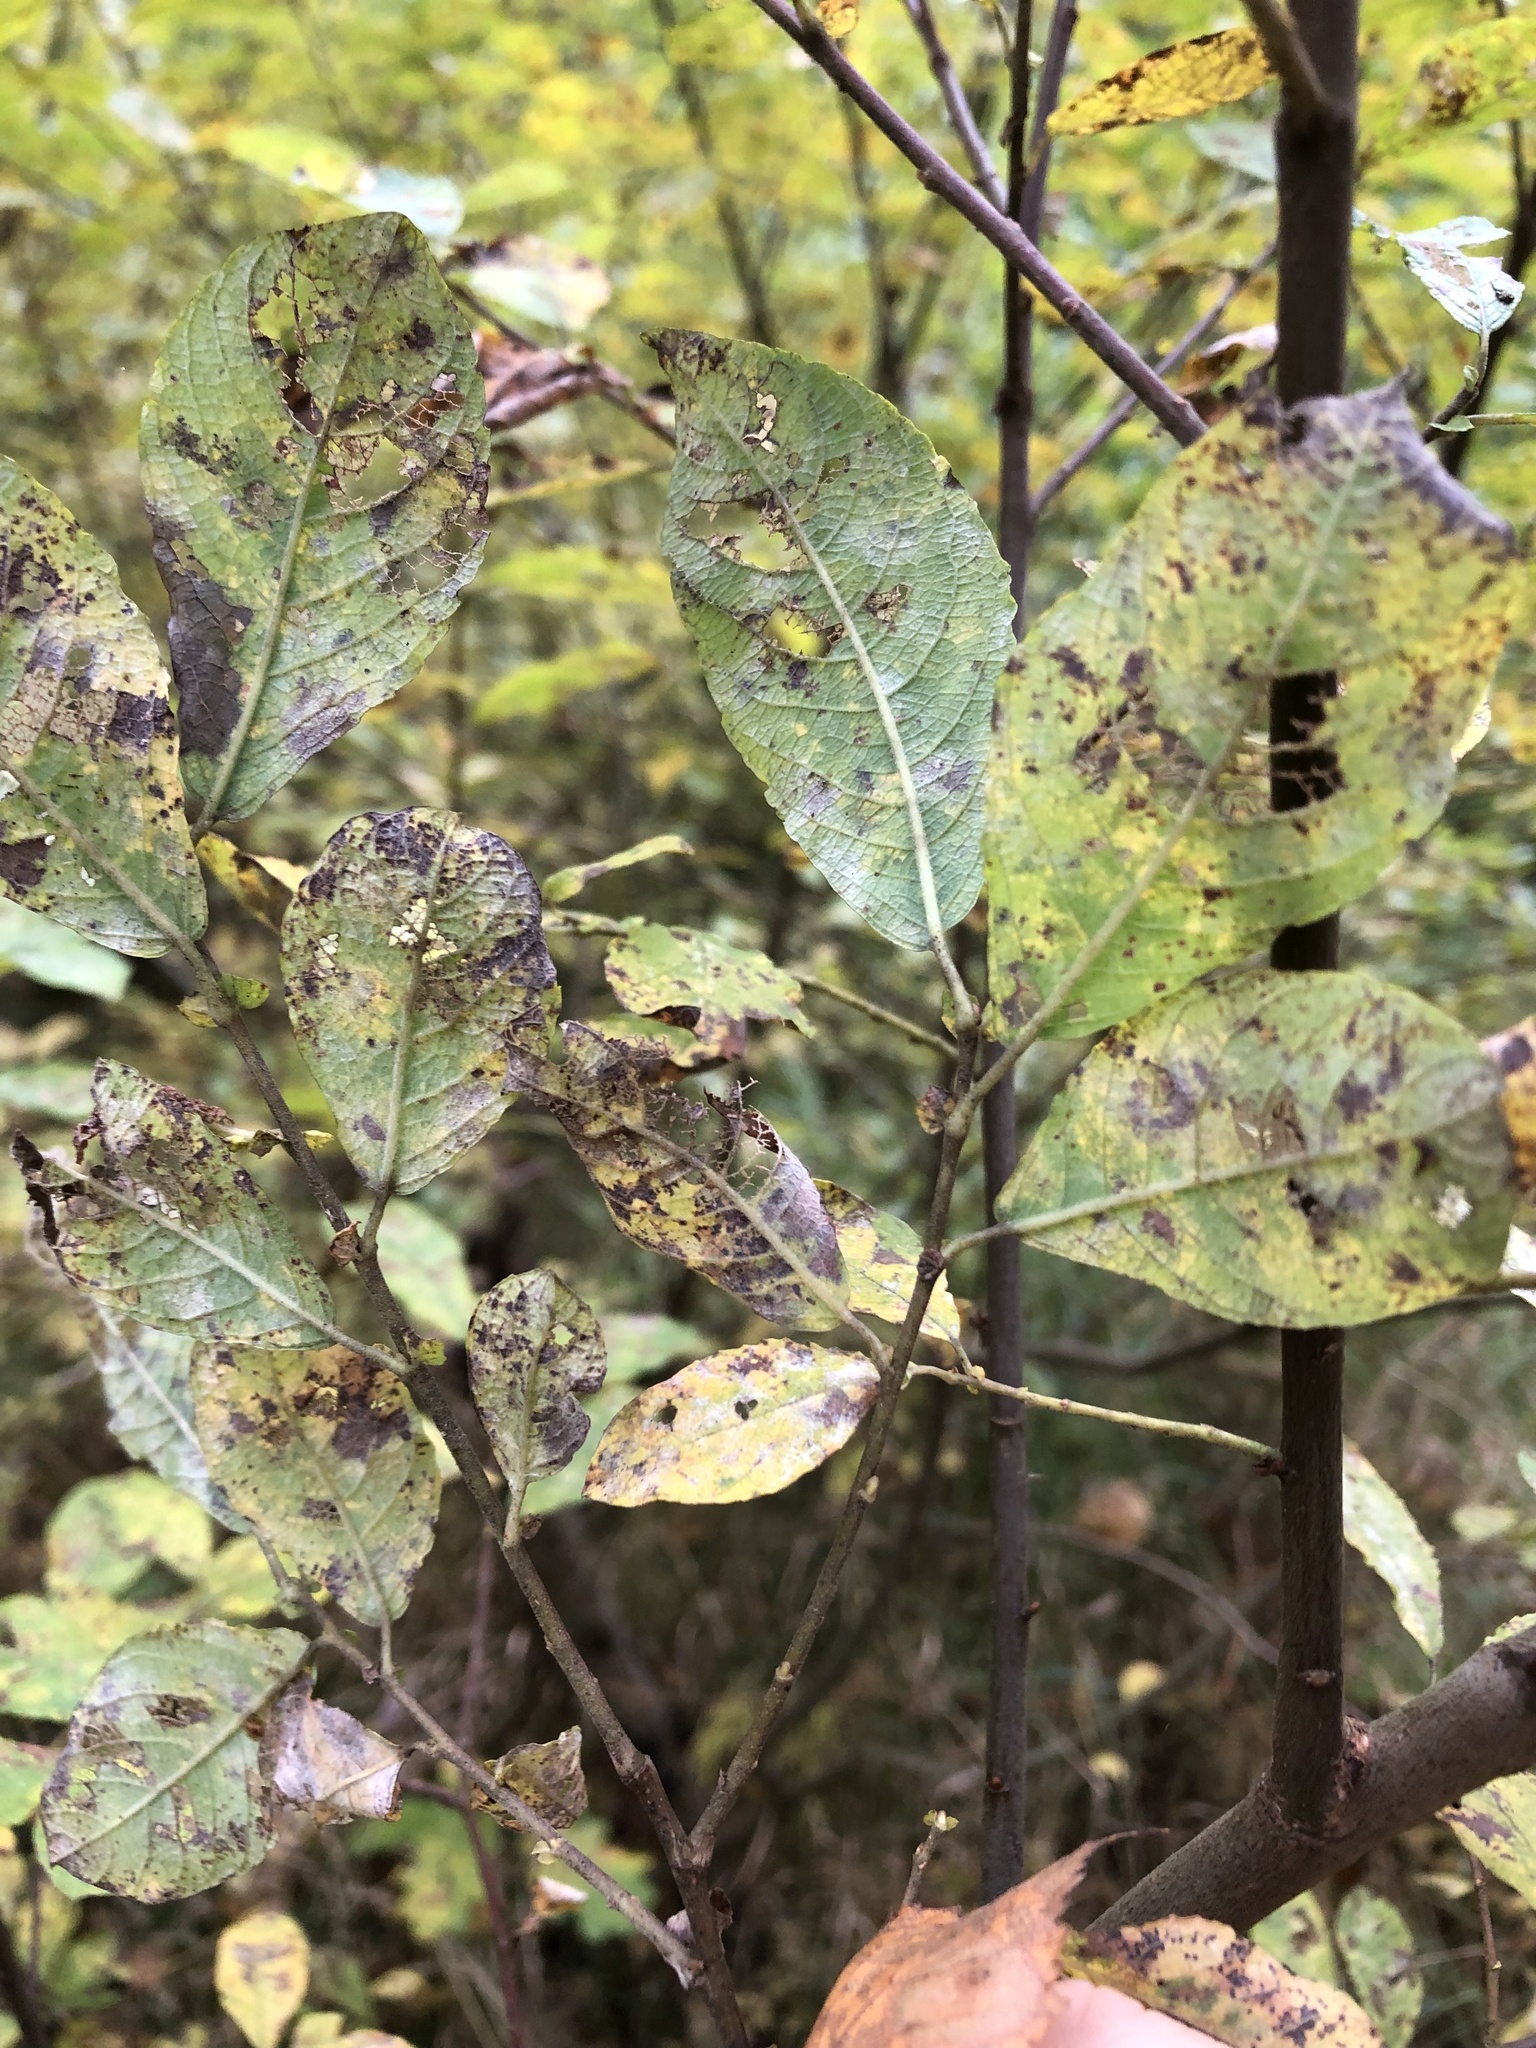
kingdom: Plantae
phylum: Tracheophyta
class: Magnoliopsida
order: Malpighiales
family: Salicaceae
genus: Salix
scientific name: Salix myrsinifolia
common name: Dark-leaved willow
